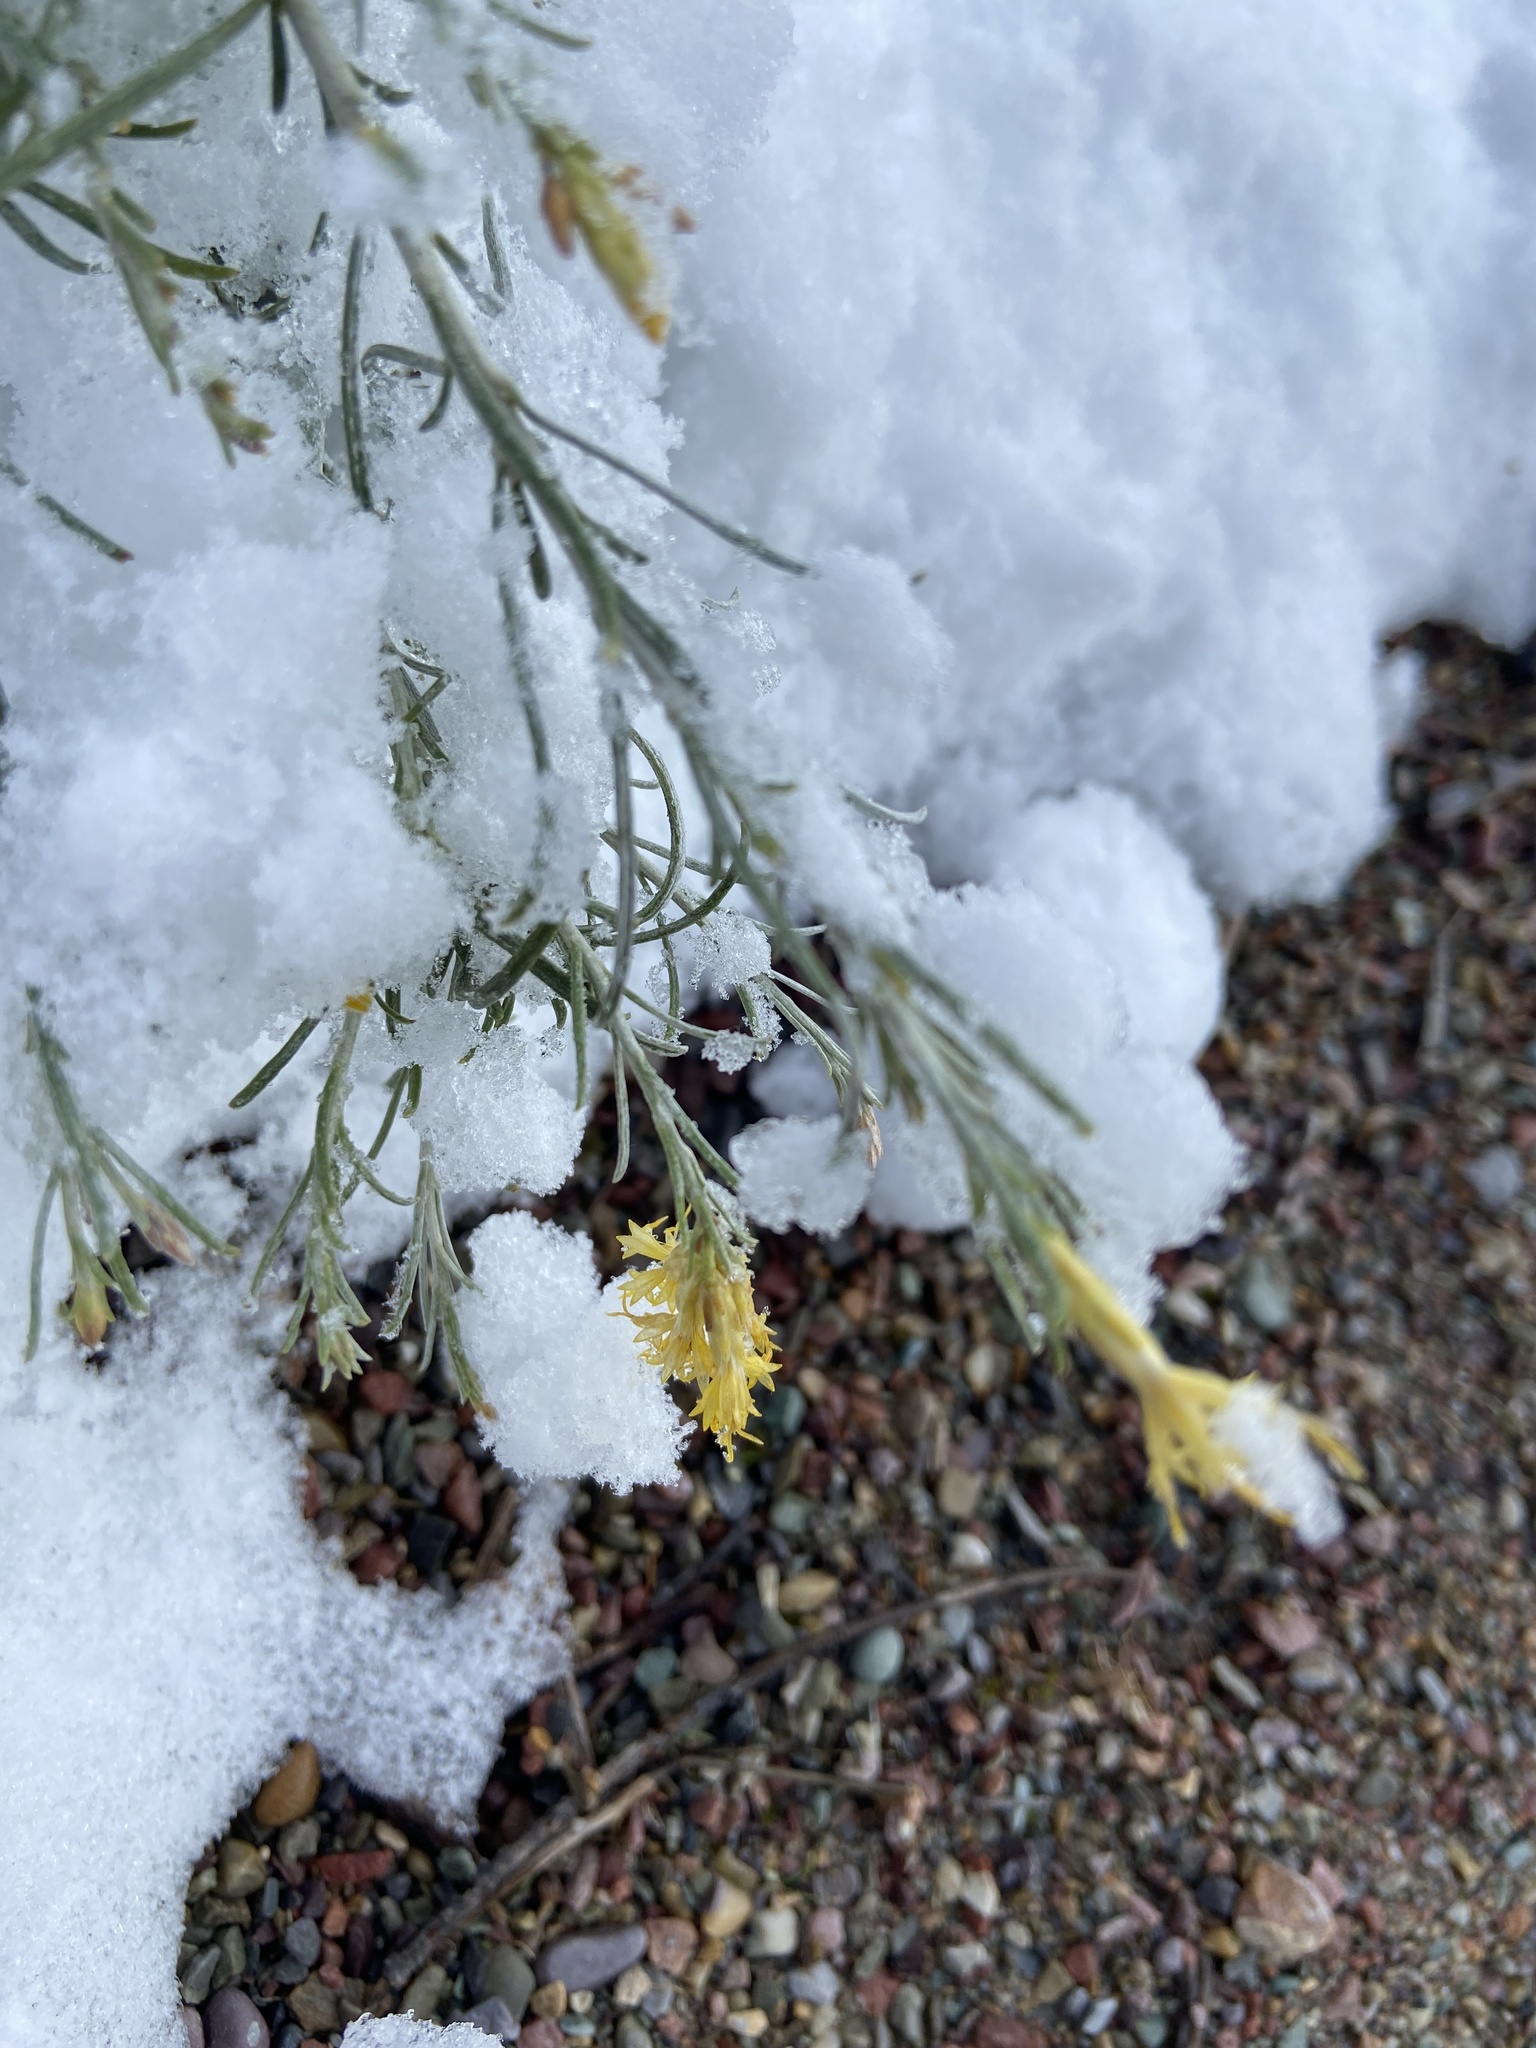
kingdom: Plantae
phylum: Tracheophyta
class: Magnoliopsida
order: Asterales
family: Asteraceae
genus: Ericameria
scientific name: Ericameria nauseosa
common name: Rubber rabbitbrush
